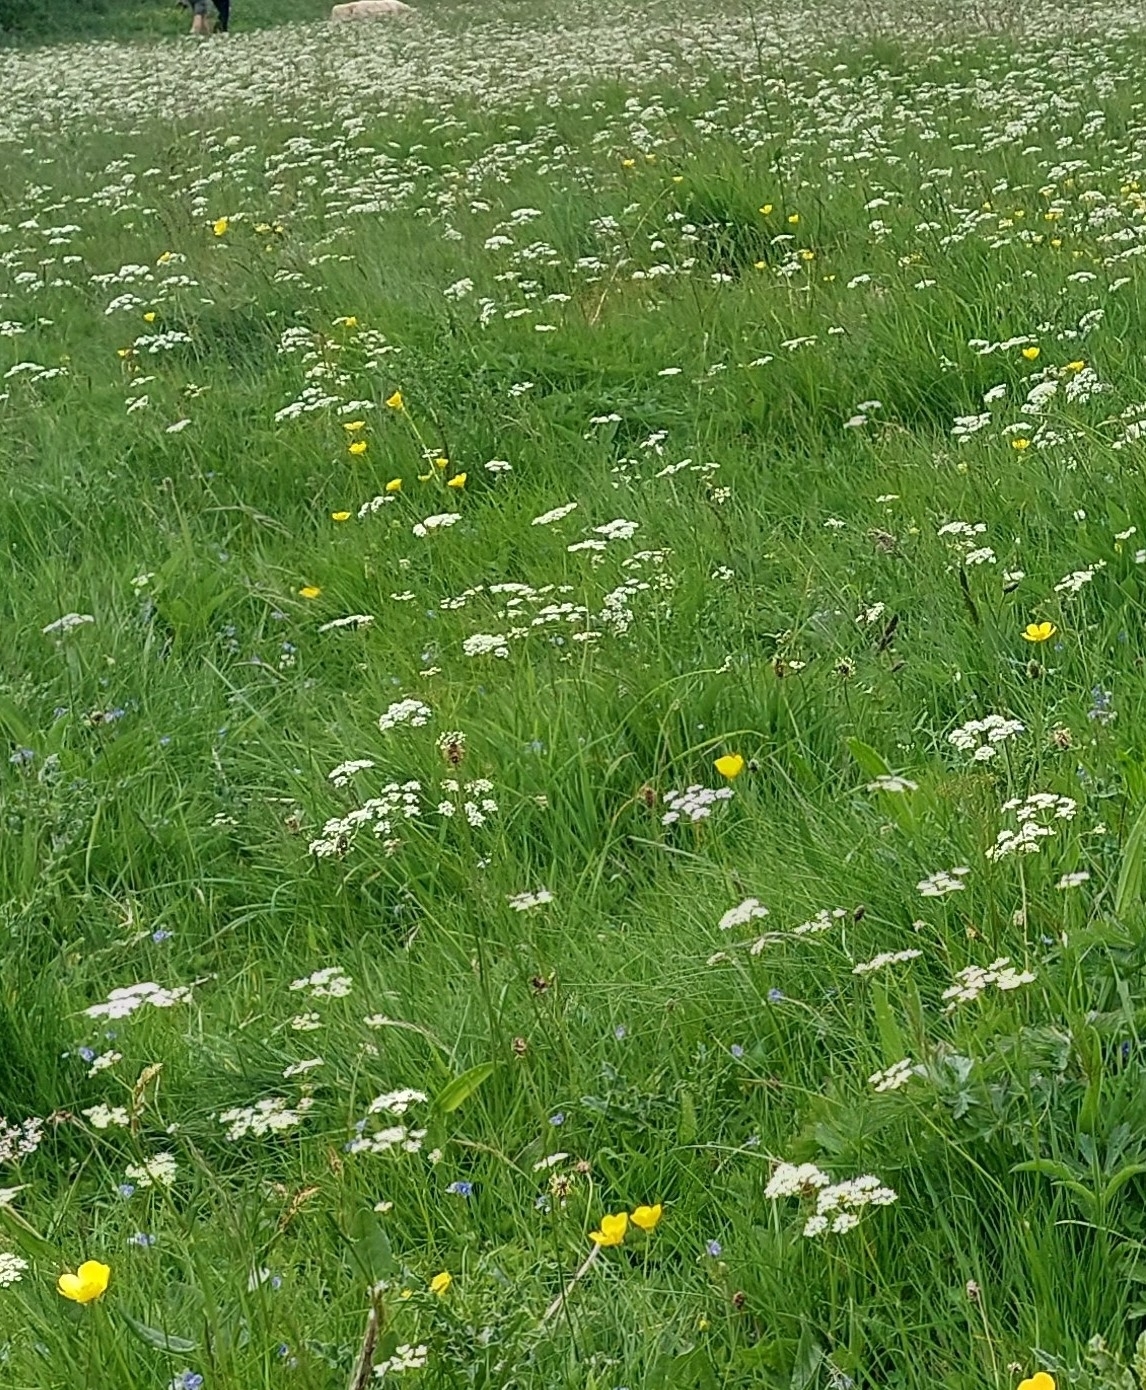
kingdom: Plantae
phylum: Tracheophyta
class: Magnoliopsida
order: Apiales
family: Apiaceae
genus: Conopodium
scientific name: Conopodium majus
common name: Pignut
